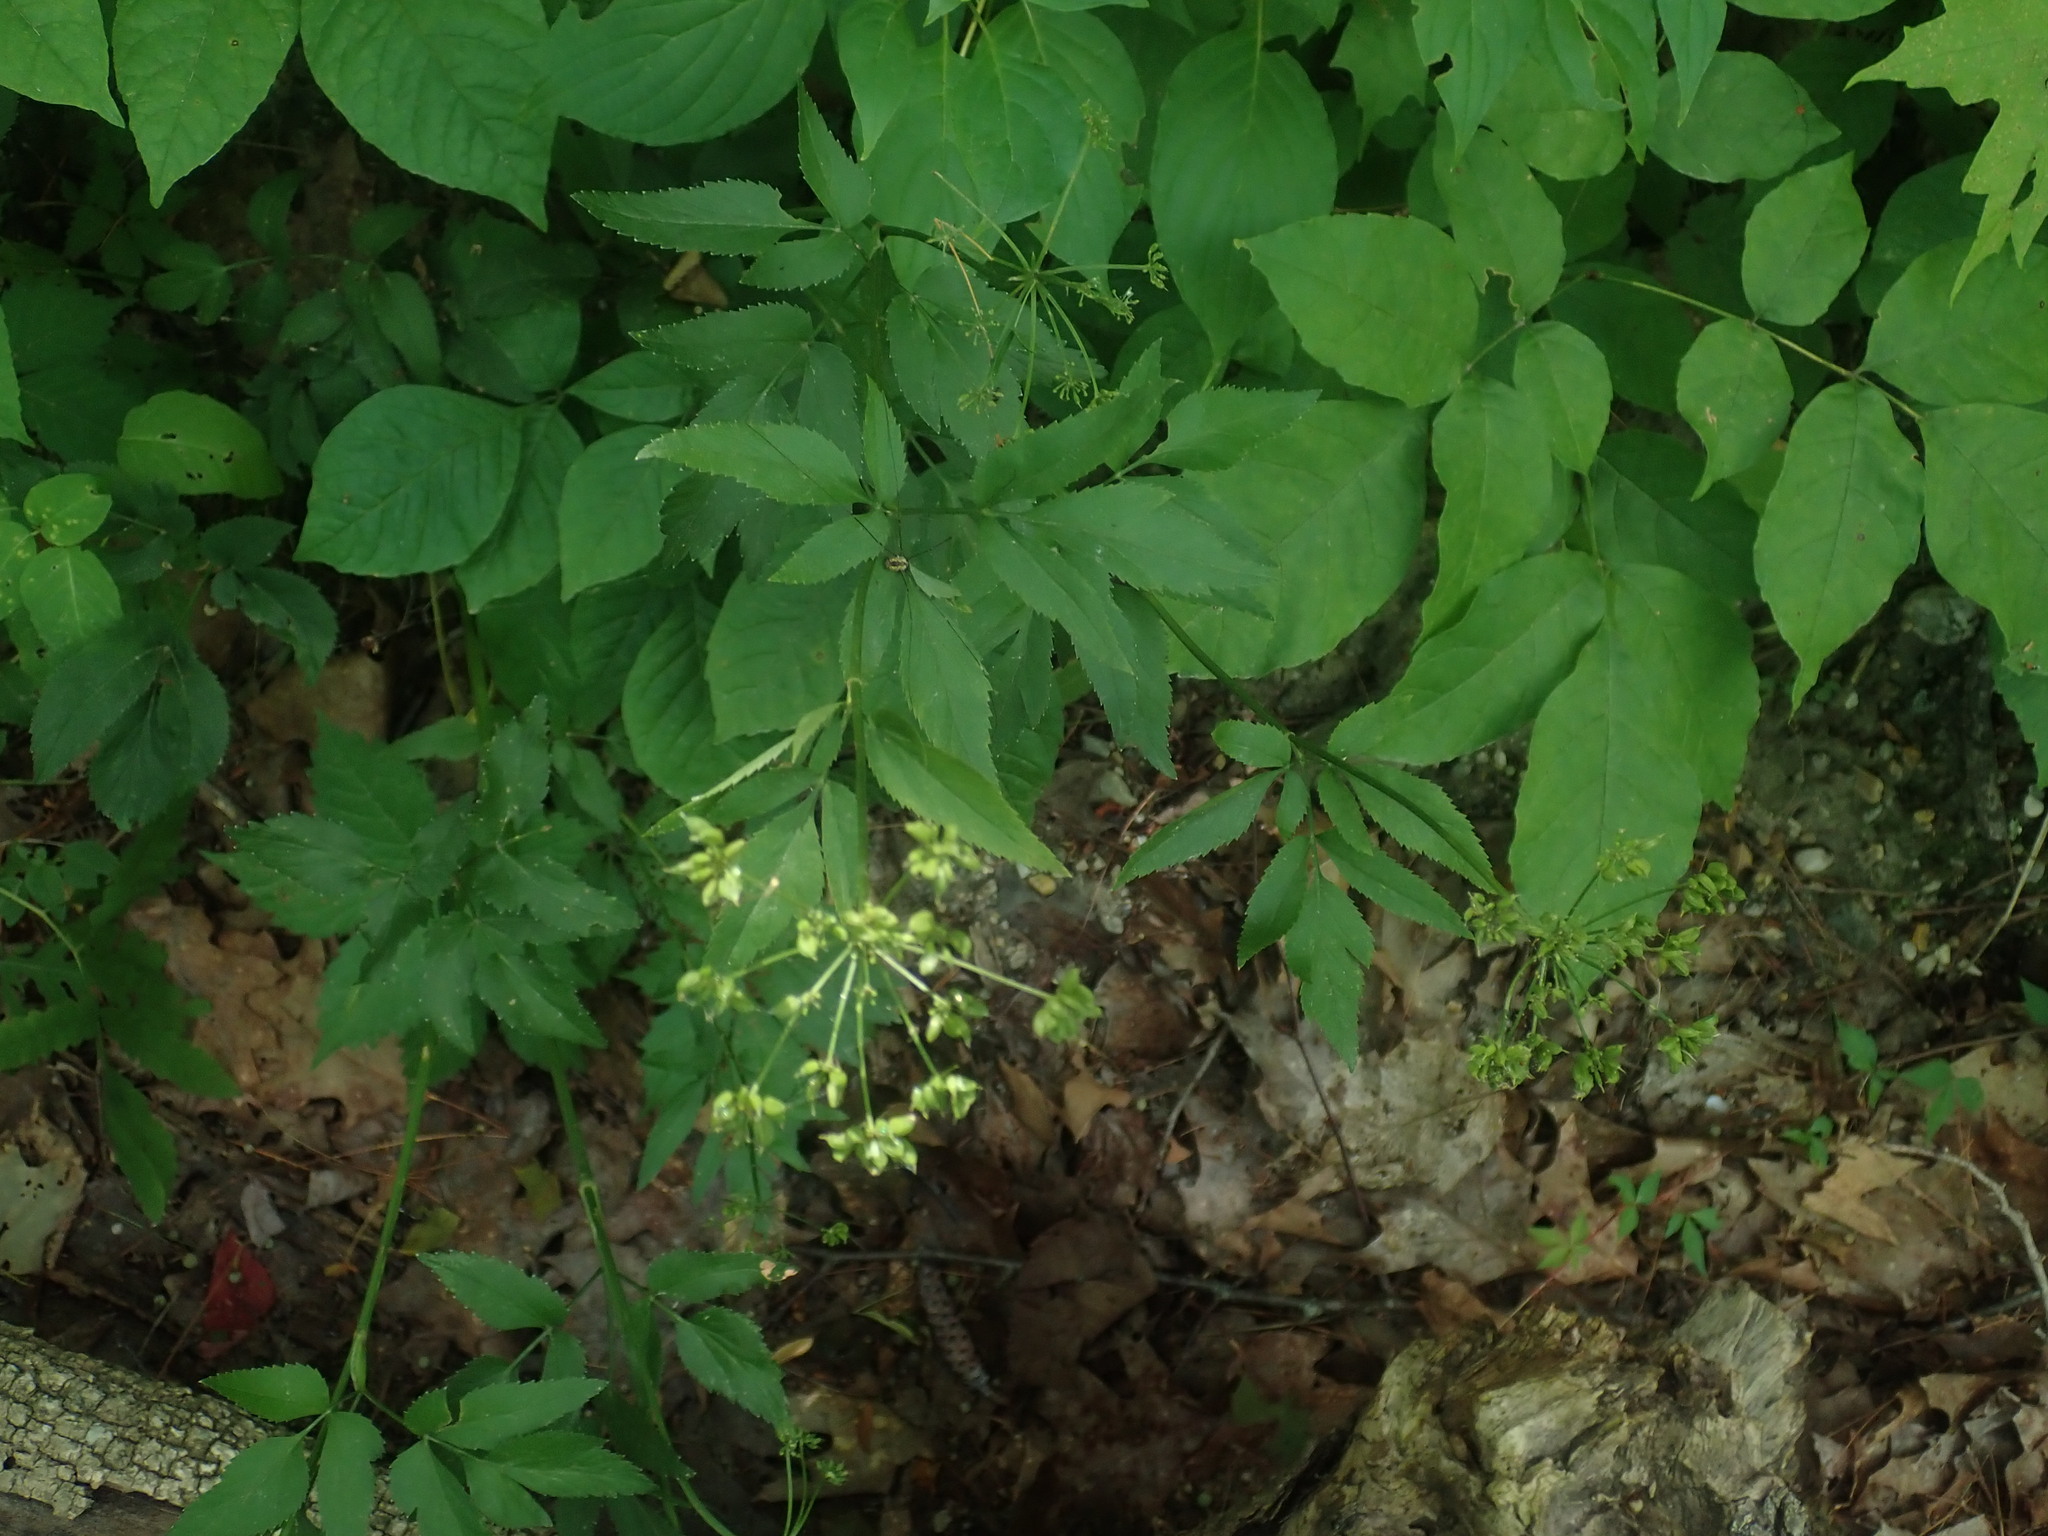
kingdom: Plantae
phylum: Tracheophyta
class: Magnoliopsida
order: Apiales
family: Apiaceae
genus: Zizia
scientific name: Zizia aurea
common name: Golden alexanders
